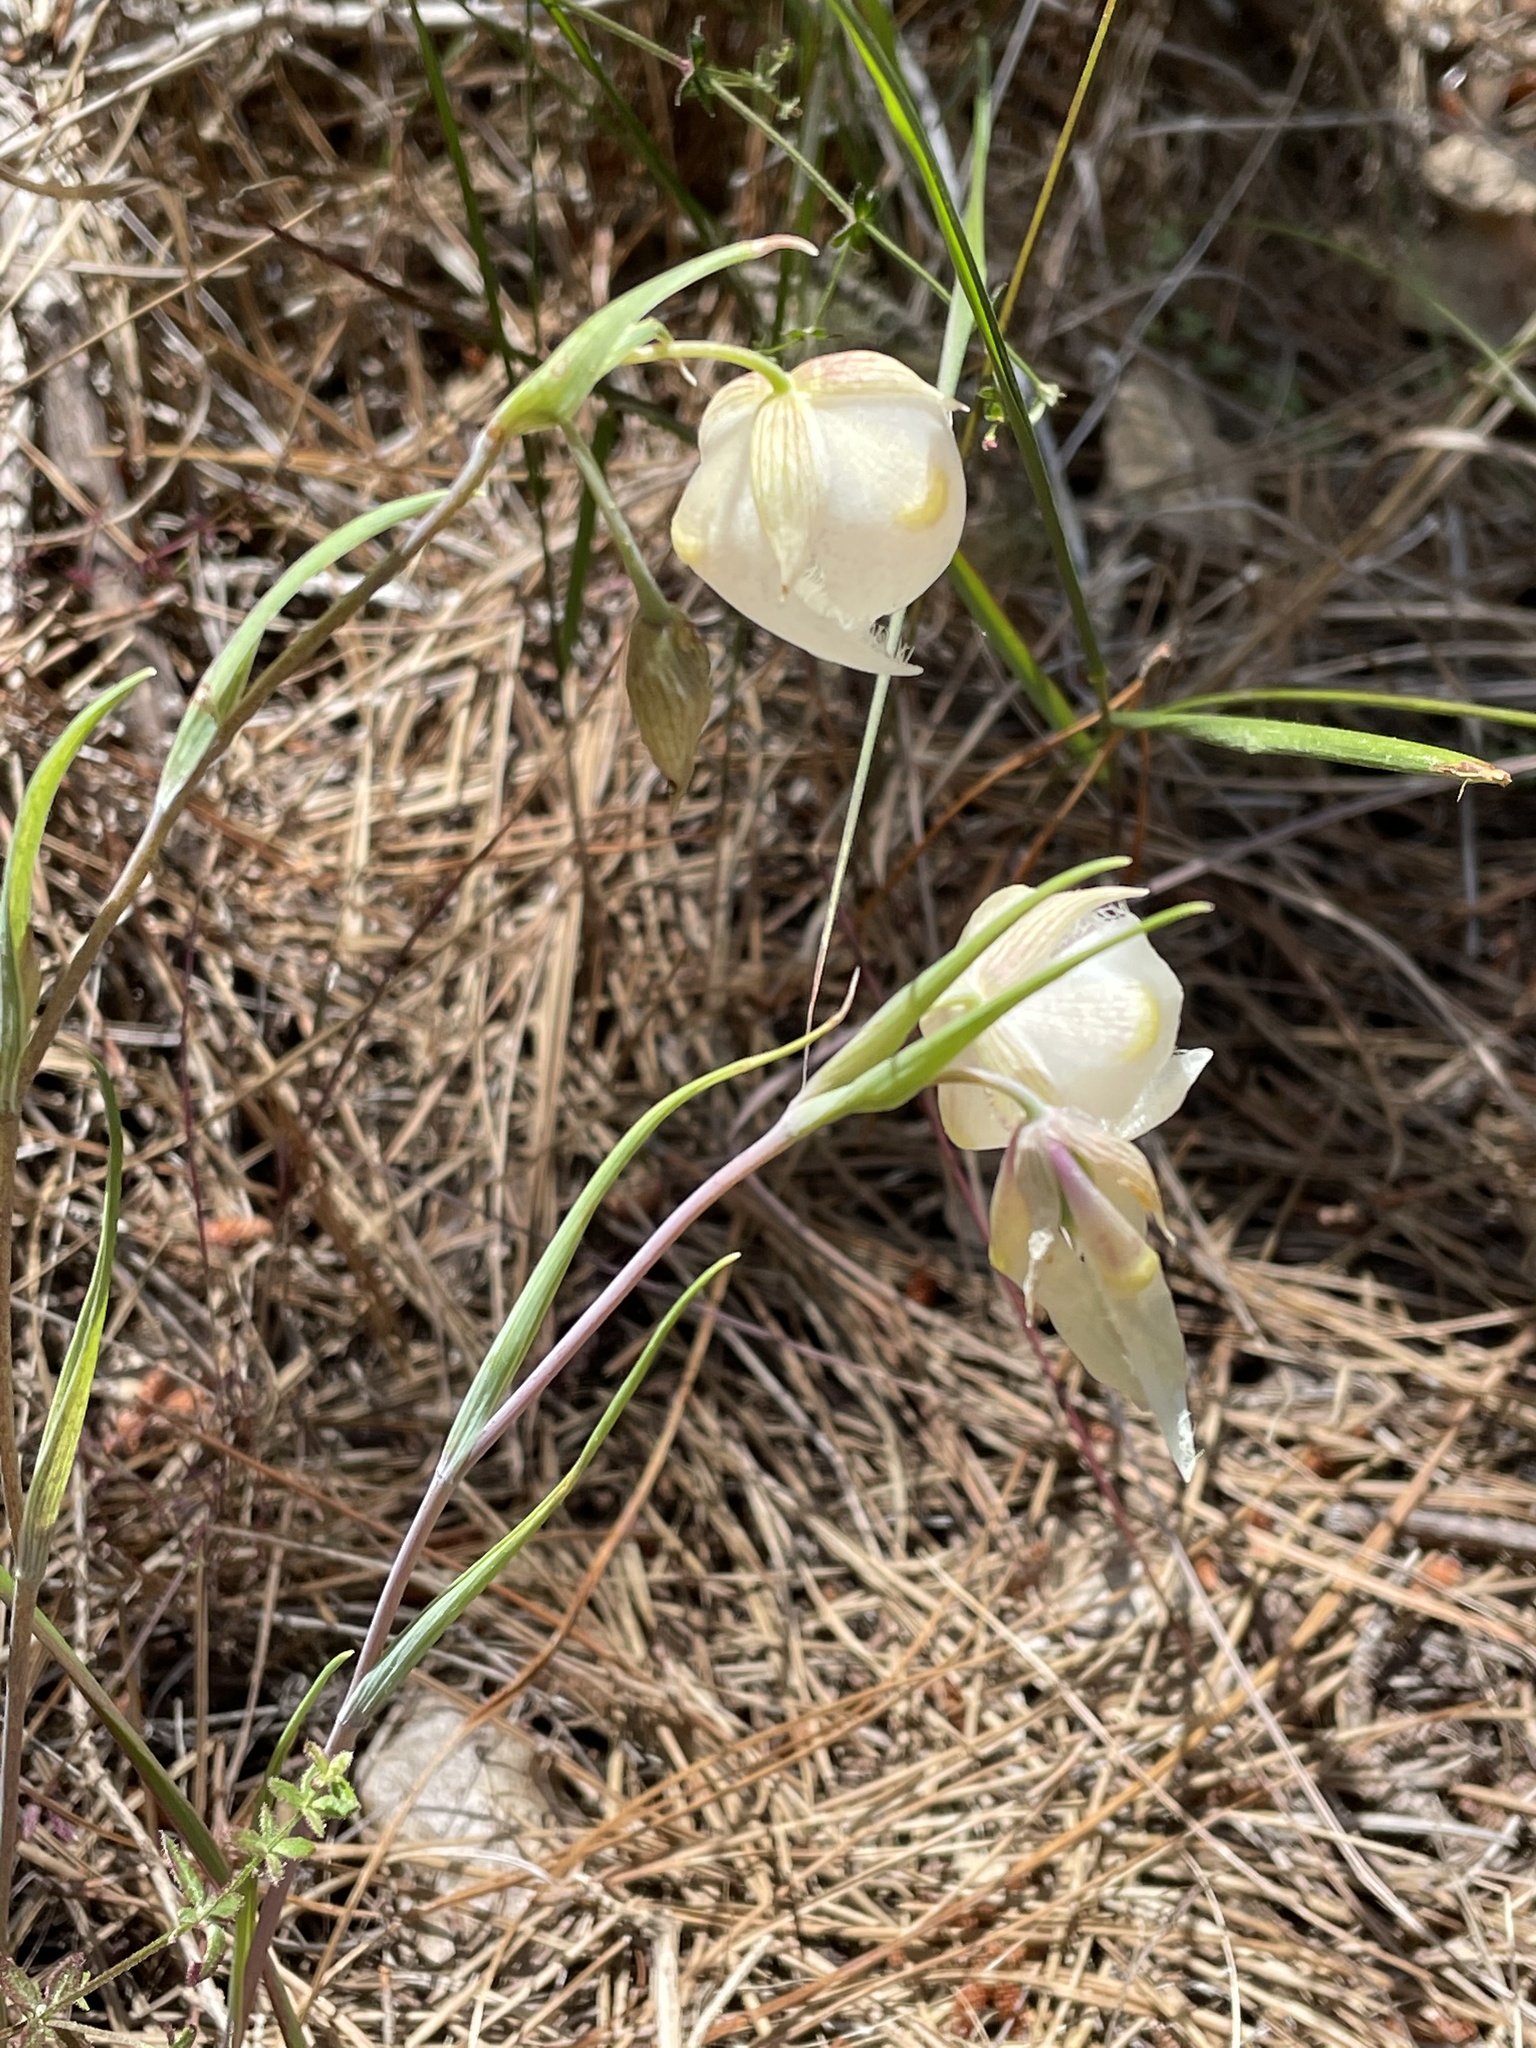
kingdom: Plantae
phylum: Tracheophyta
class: Liliopsida
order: Liliales
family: Liliaceae
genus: Calochortus
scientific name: Calochortus albus
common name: Fairy-lantern
